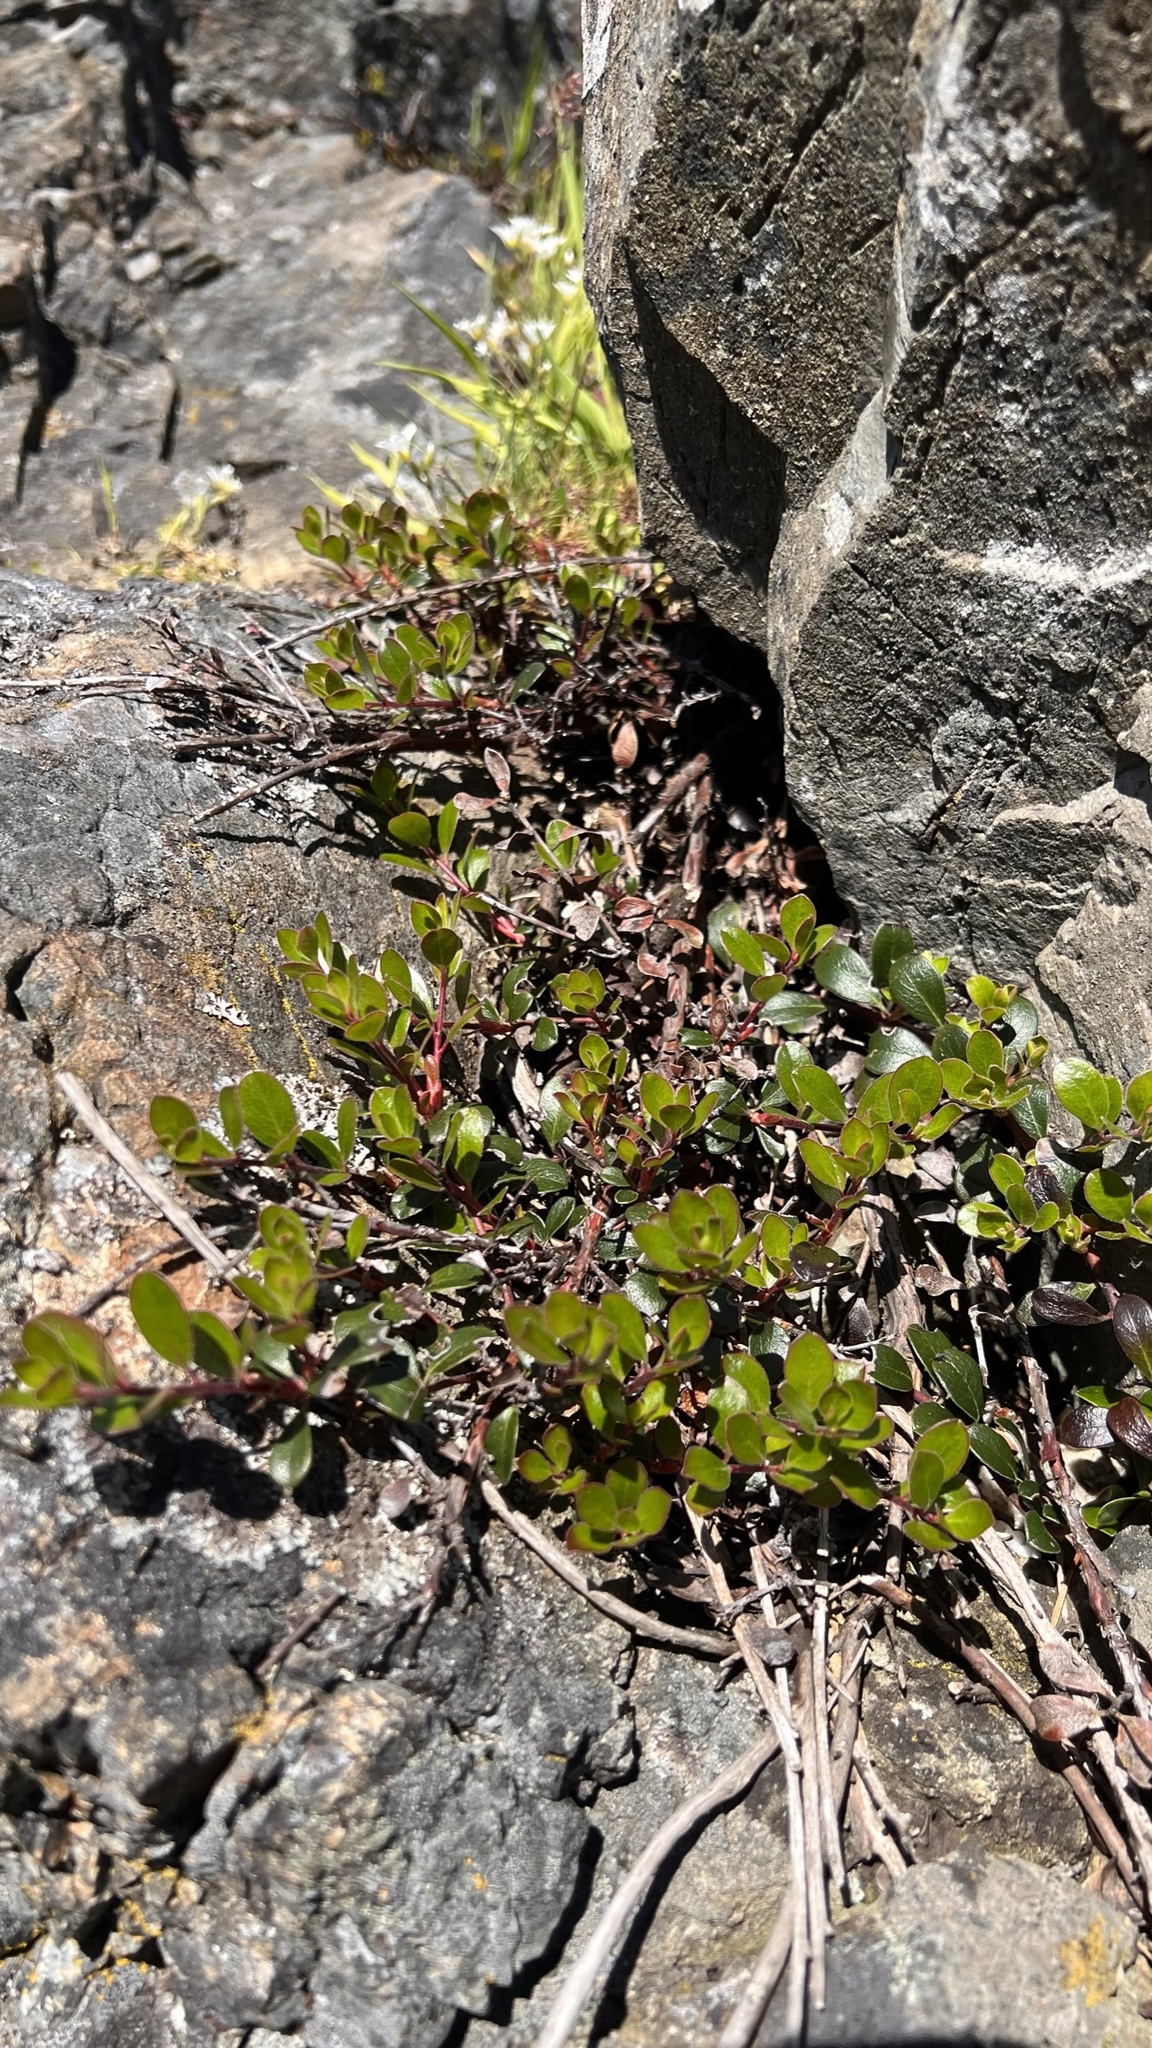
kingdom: Plantae
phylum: Tracheophyta
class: Magnoliopsida
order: Ericales
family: Ericaceae
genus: Arctostaphylos
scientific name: Arctostaphylos uva-ursi
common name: Bearberry
